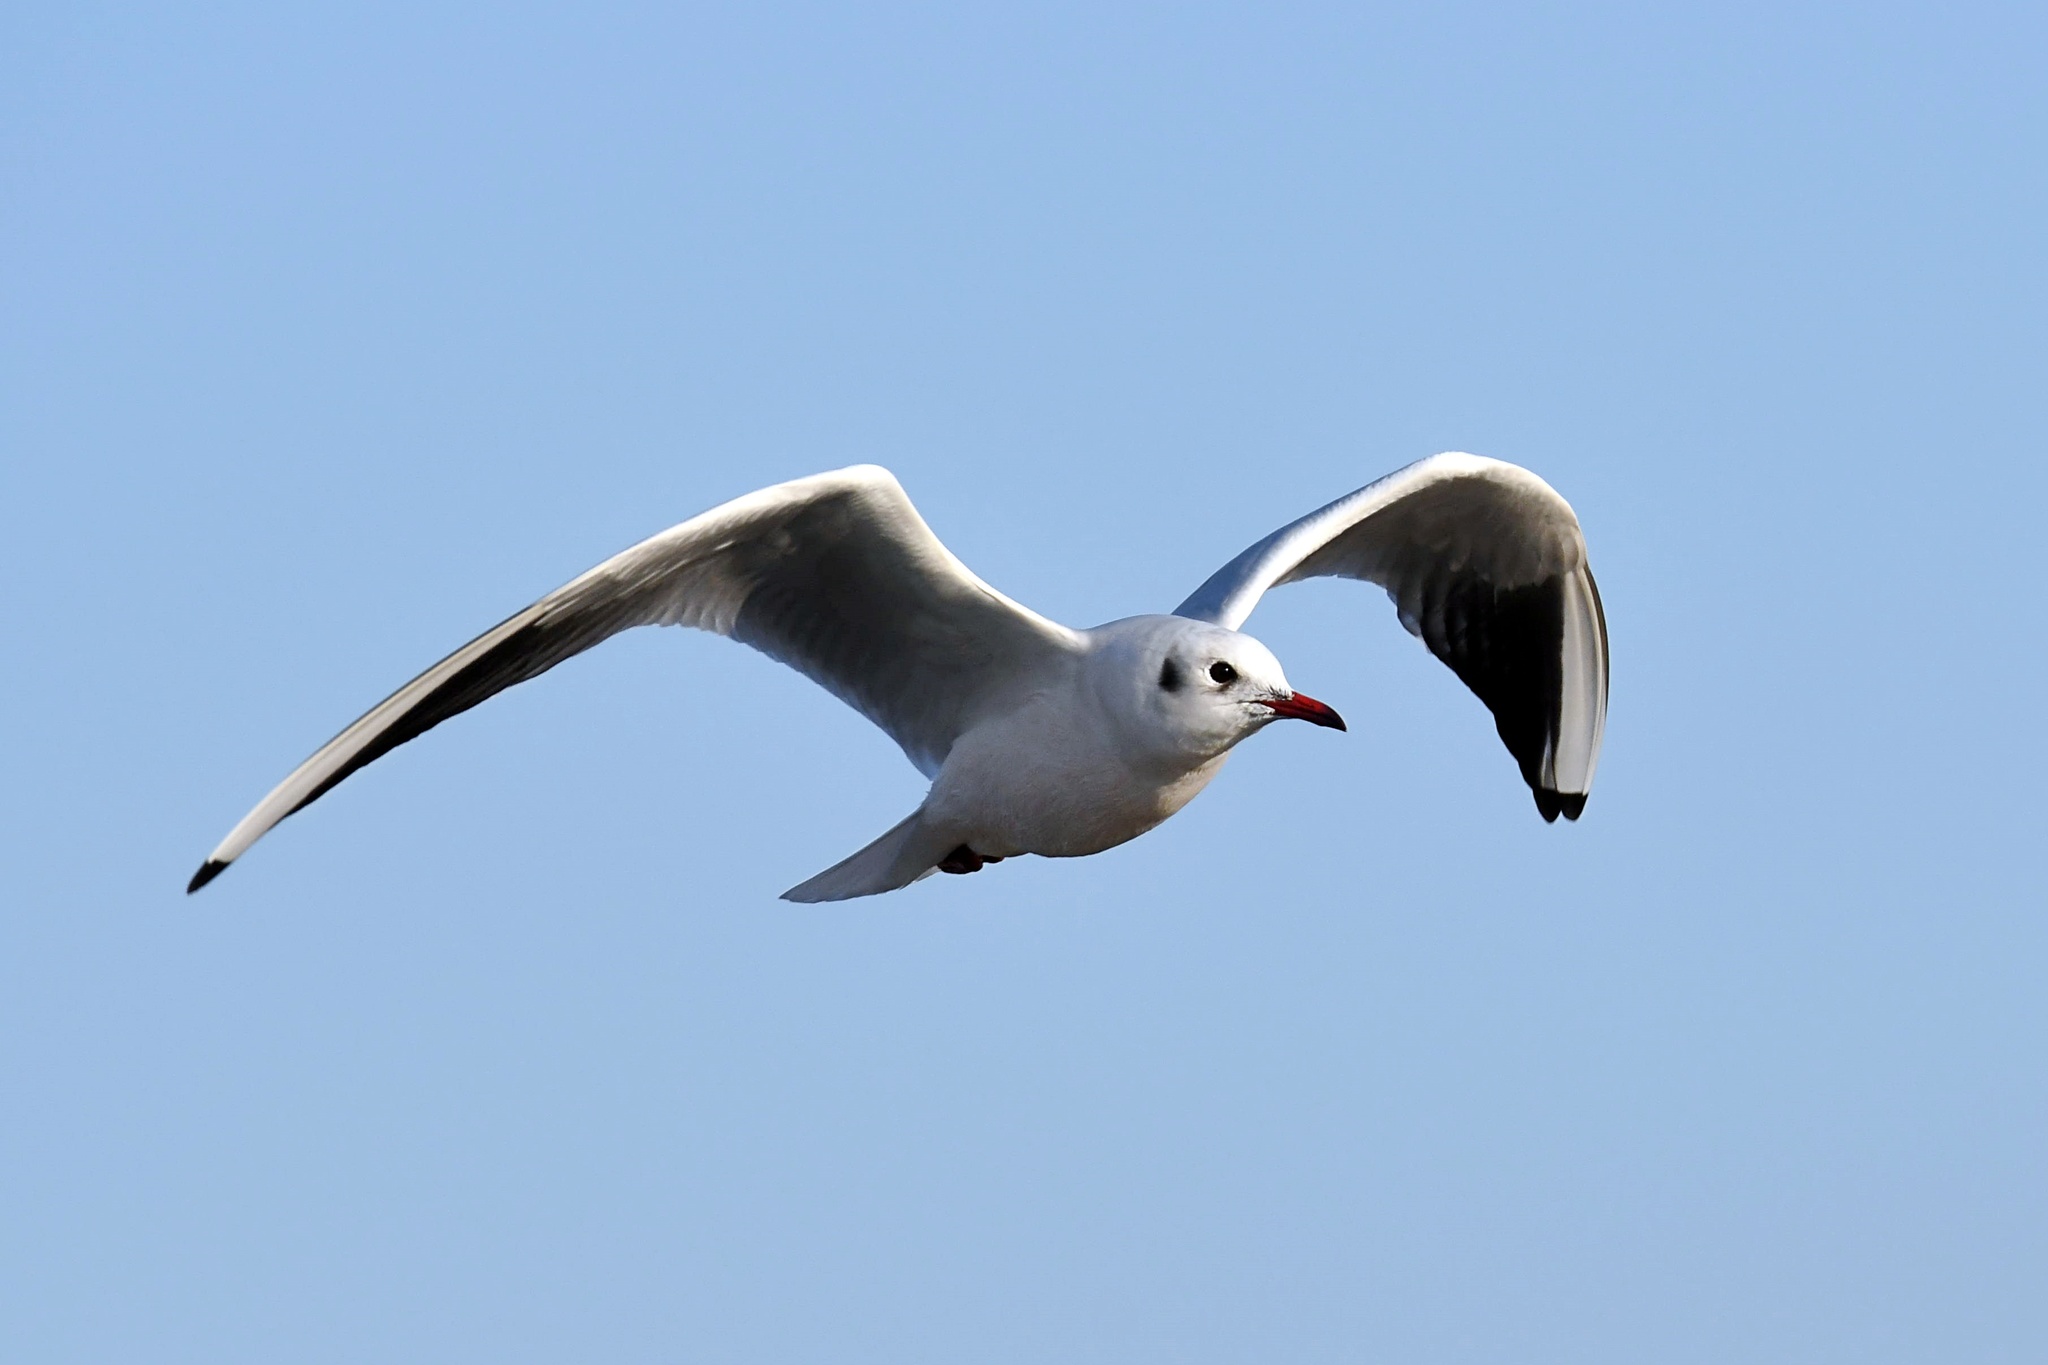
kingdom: Animalia
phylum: Chordata
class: Aves
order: Charadriiformes
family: Laridae
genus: Chroicocephalus
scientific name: Chroicocephalus ridibundus
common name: Black-headed gull
